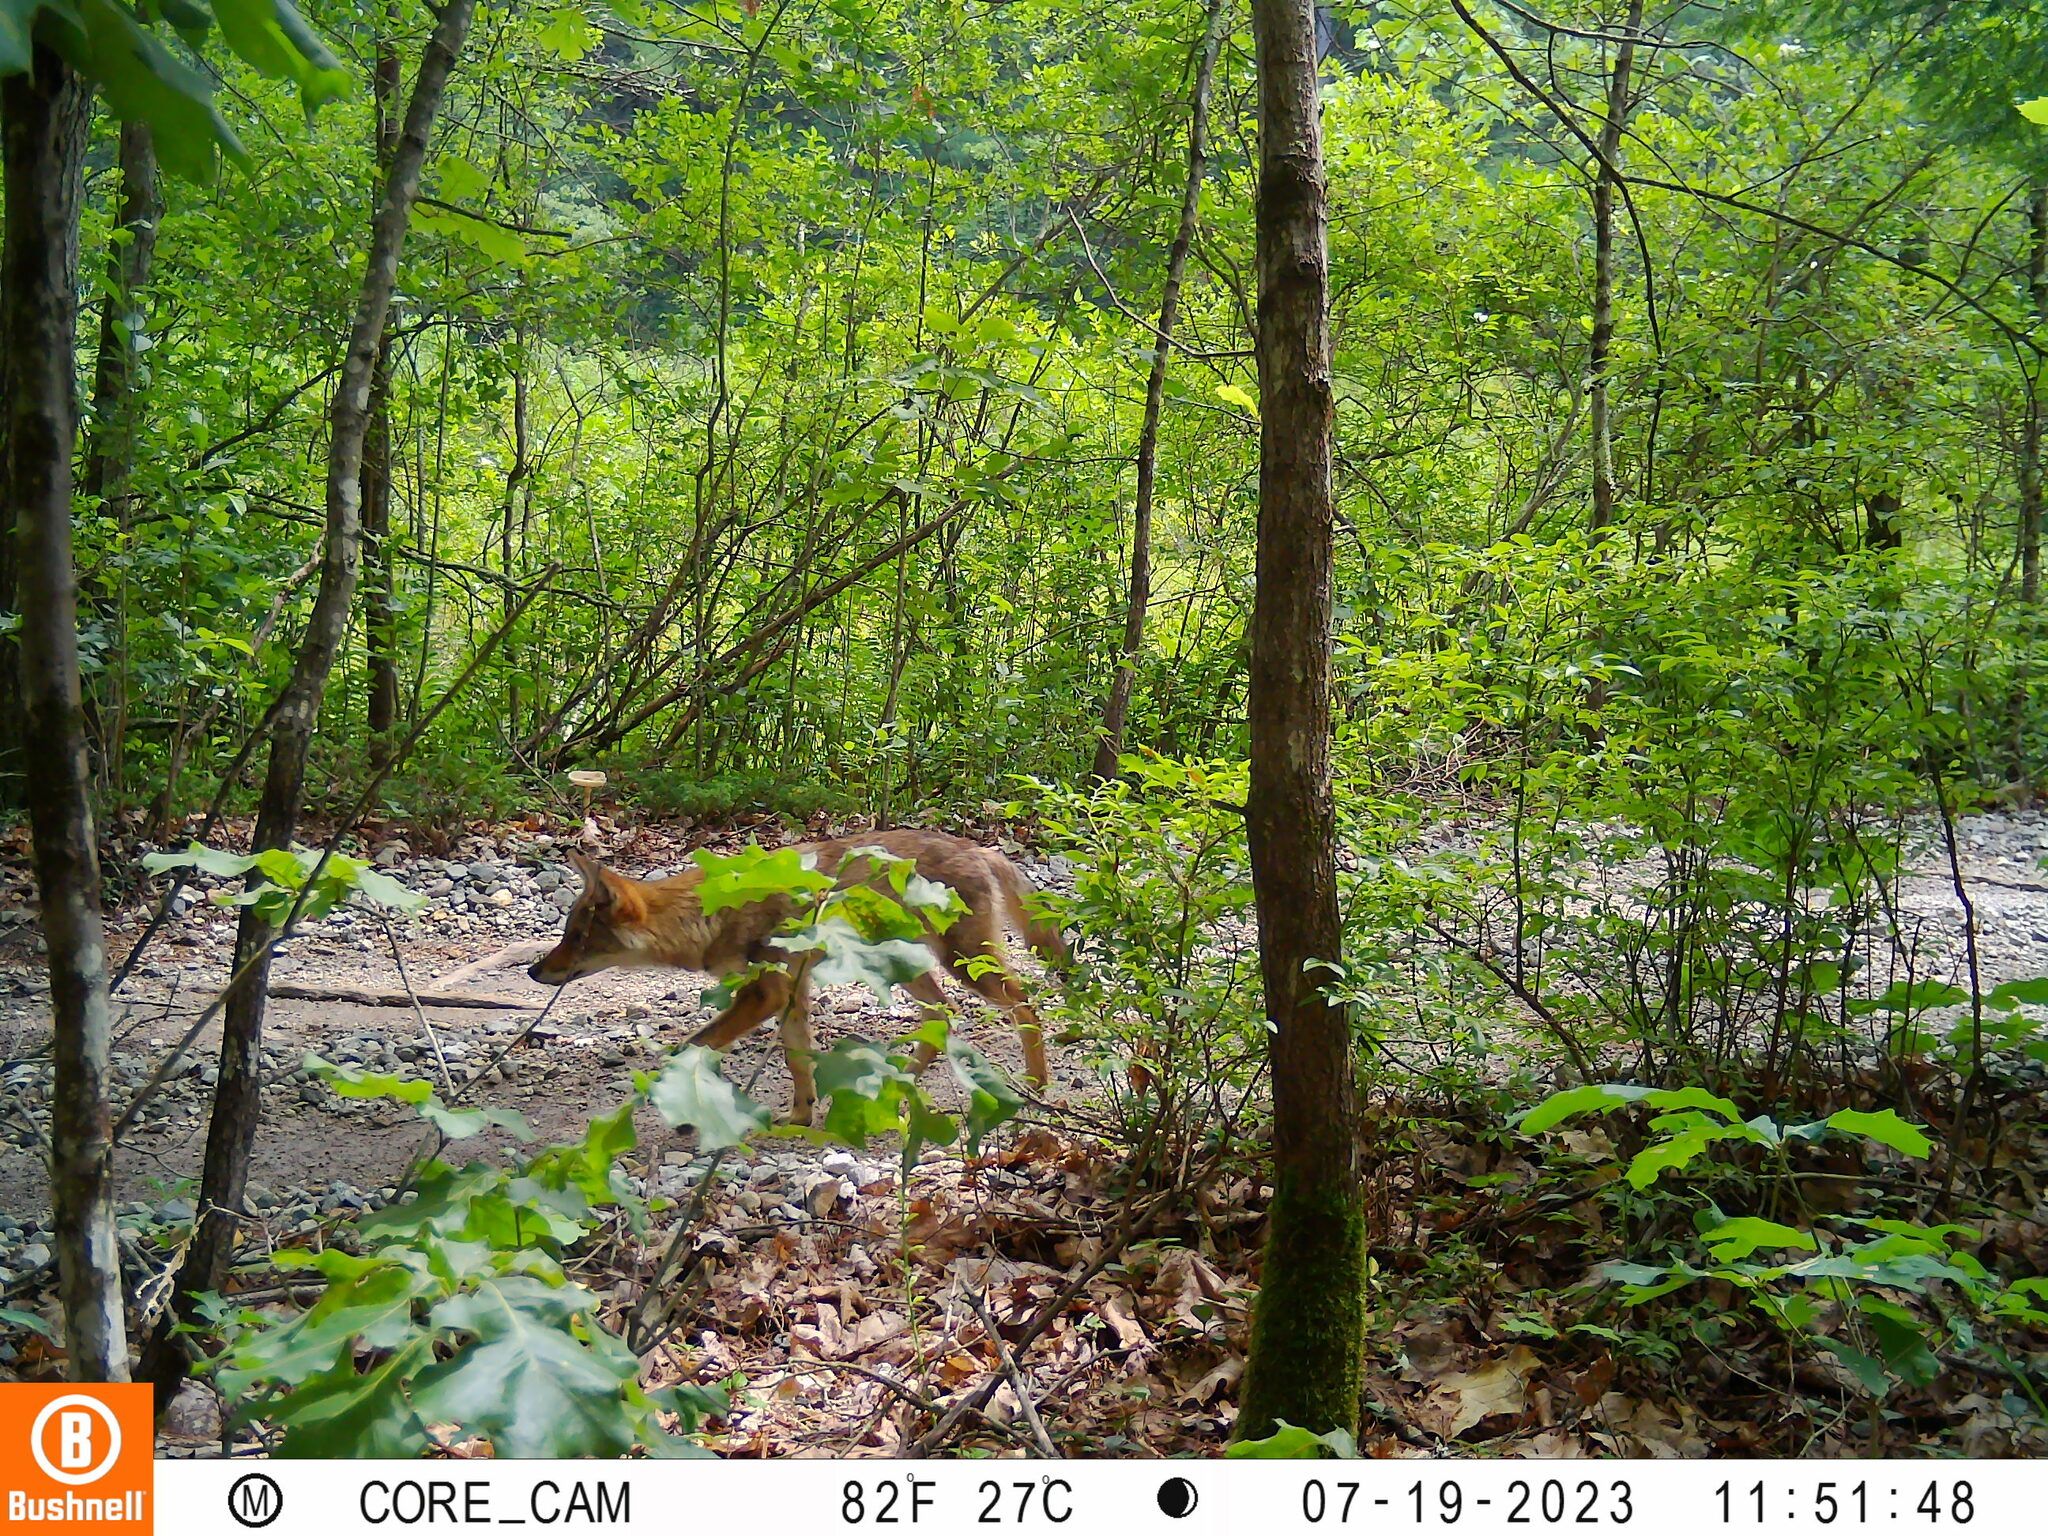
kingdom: Animalia
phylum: Chordata
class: Mammalia
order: Carnivora
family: Canidae
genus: Canis
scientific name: Canis latrans
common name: Coyote
